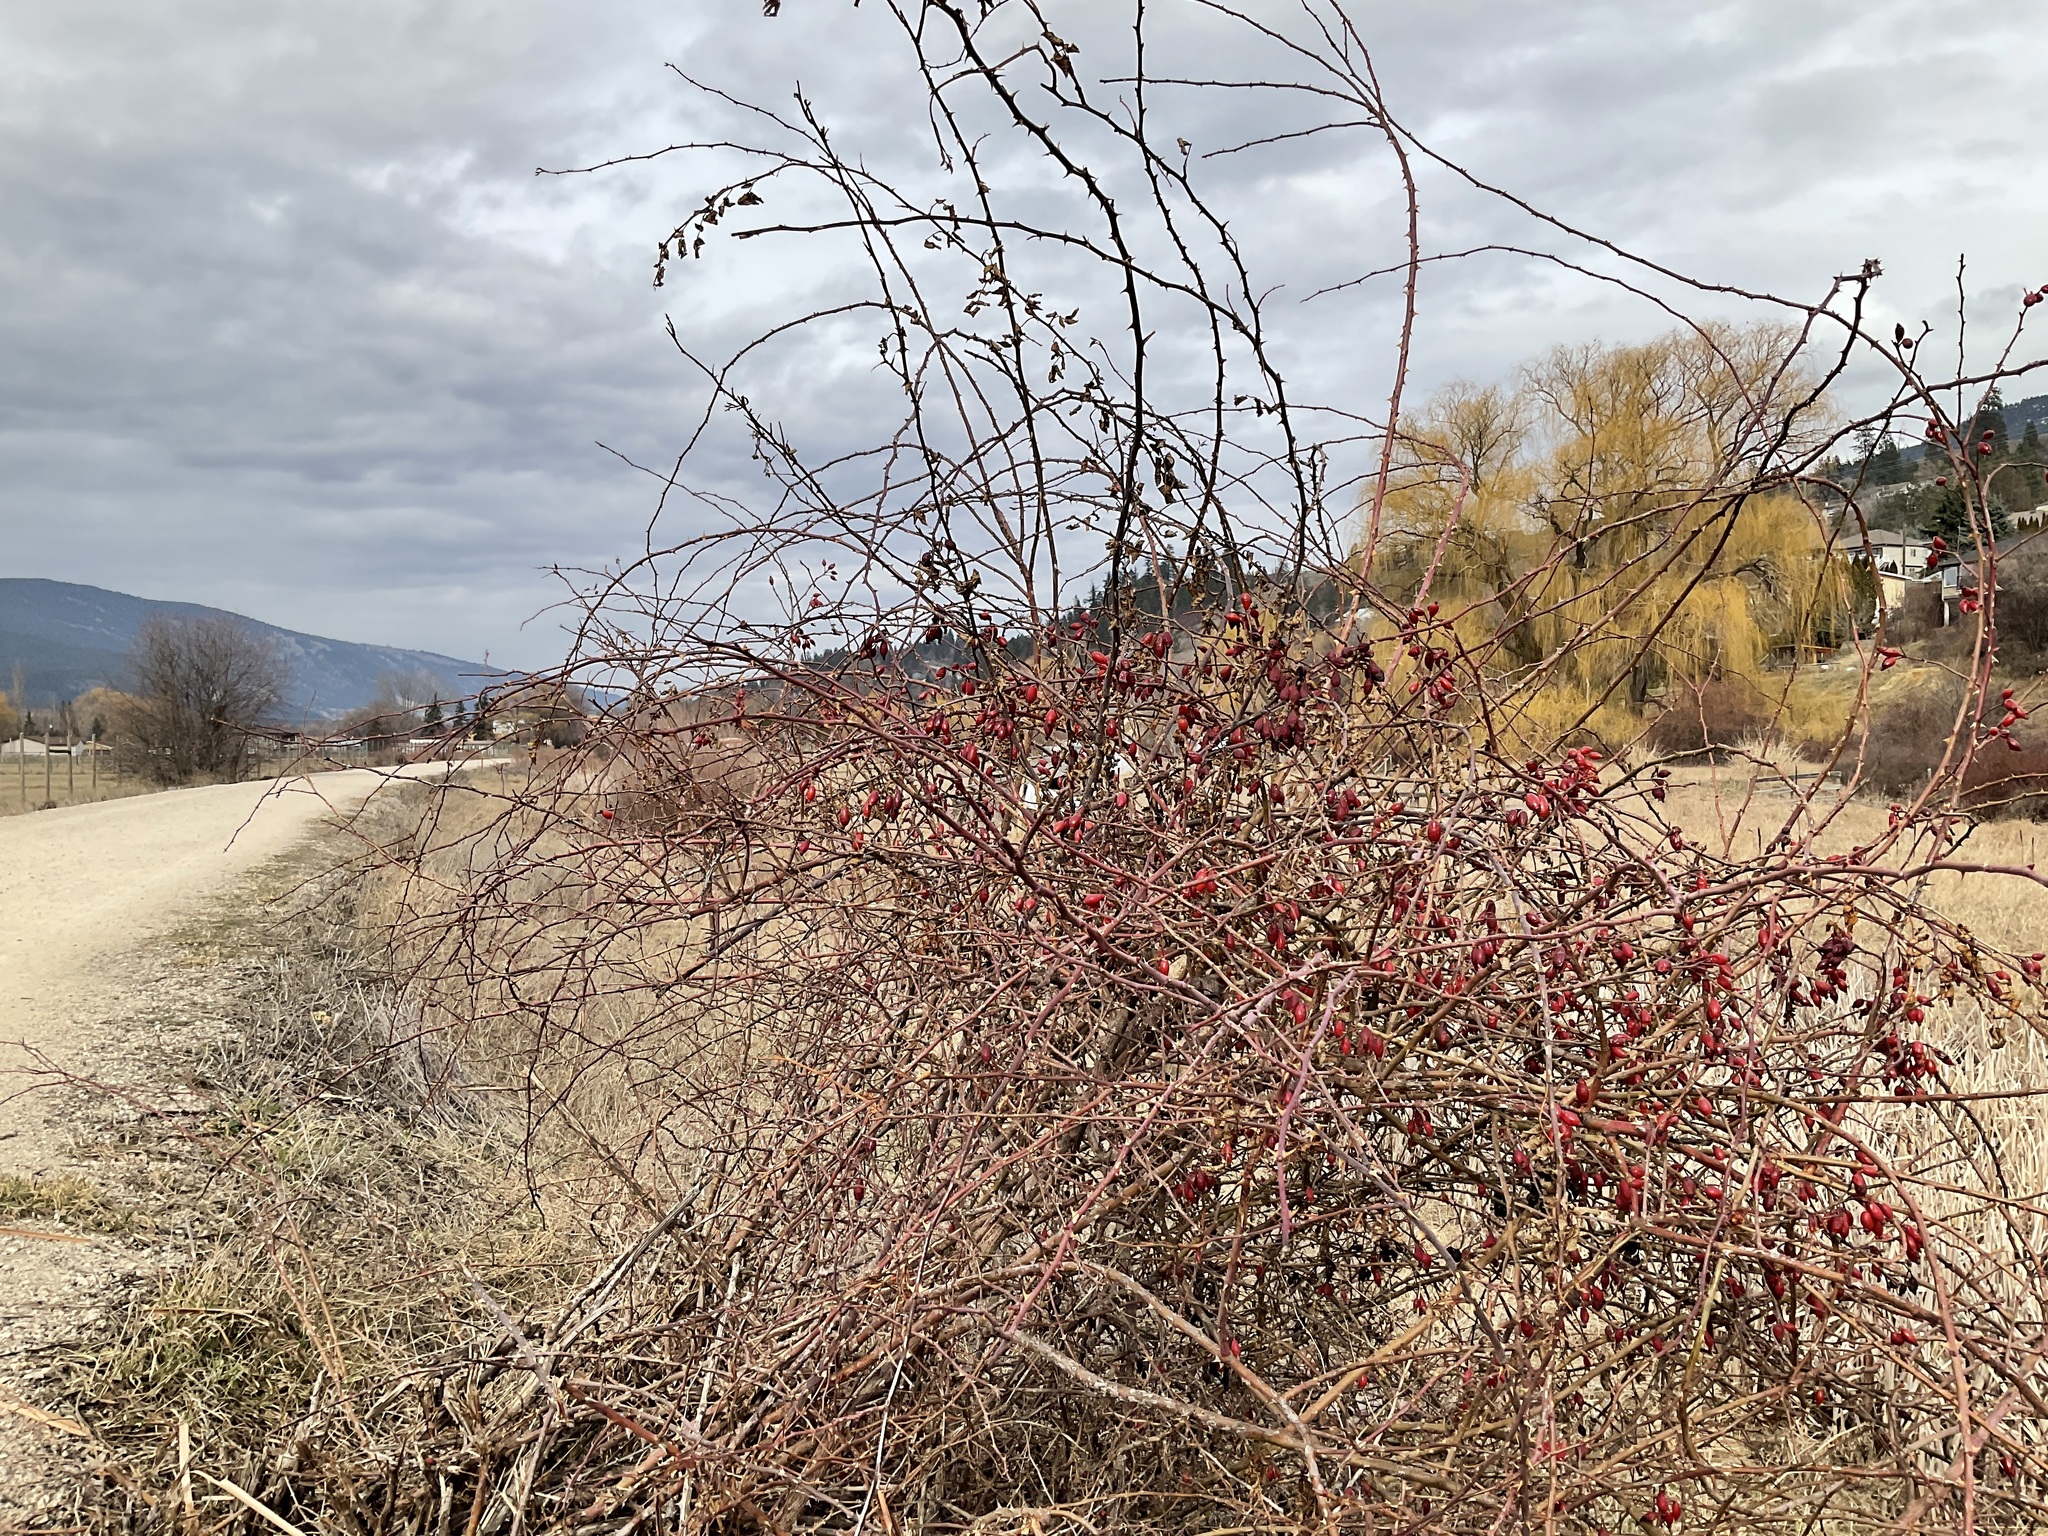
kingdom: Plantae
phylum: Tracheophyta
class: Magnoliopsida
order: Rosales
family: Rosaceae
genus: Rosa
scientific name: Rosa canina
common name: Dog rose
